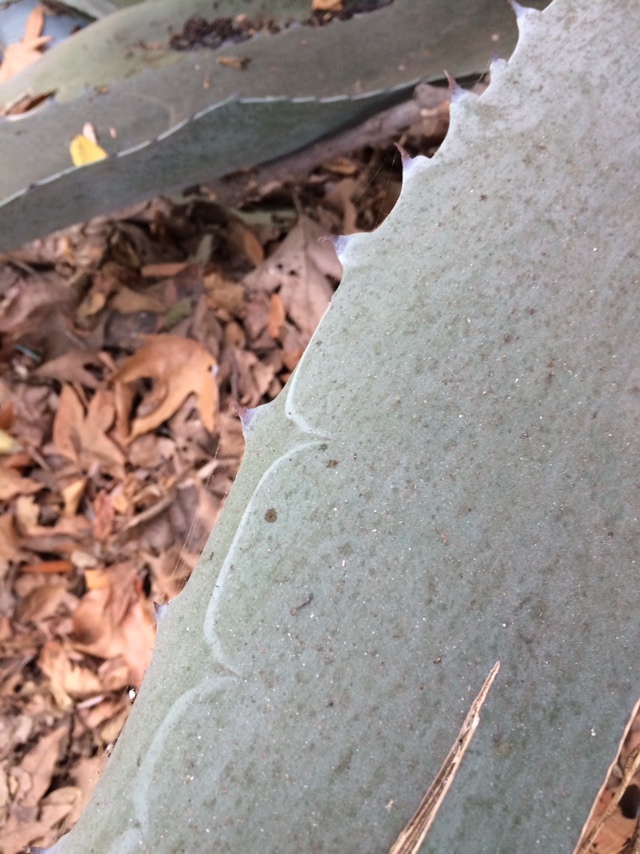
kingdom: Plantae
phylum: Tracheophyta
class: Liliopsida
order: Asparagales
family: Asparagaceae
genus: Agave
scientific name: Agave americana
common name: Centuryplant
